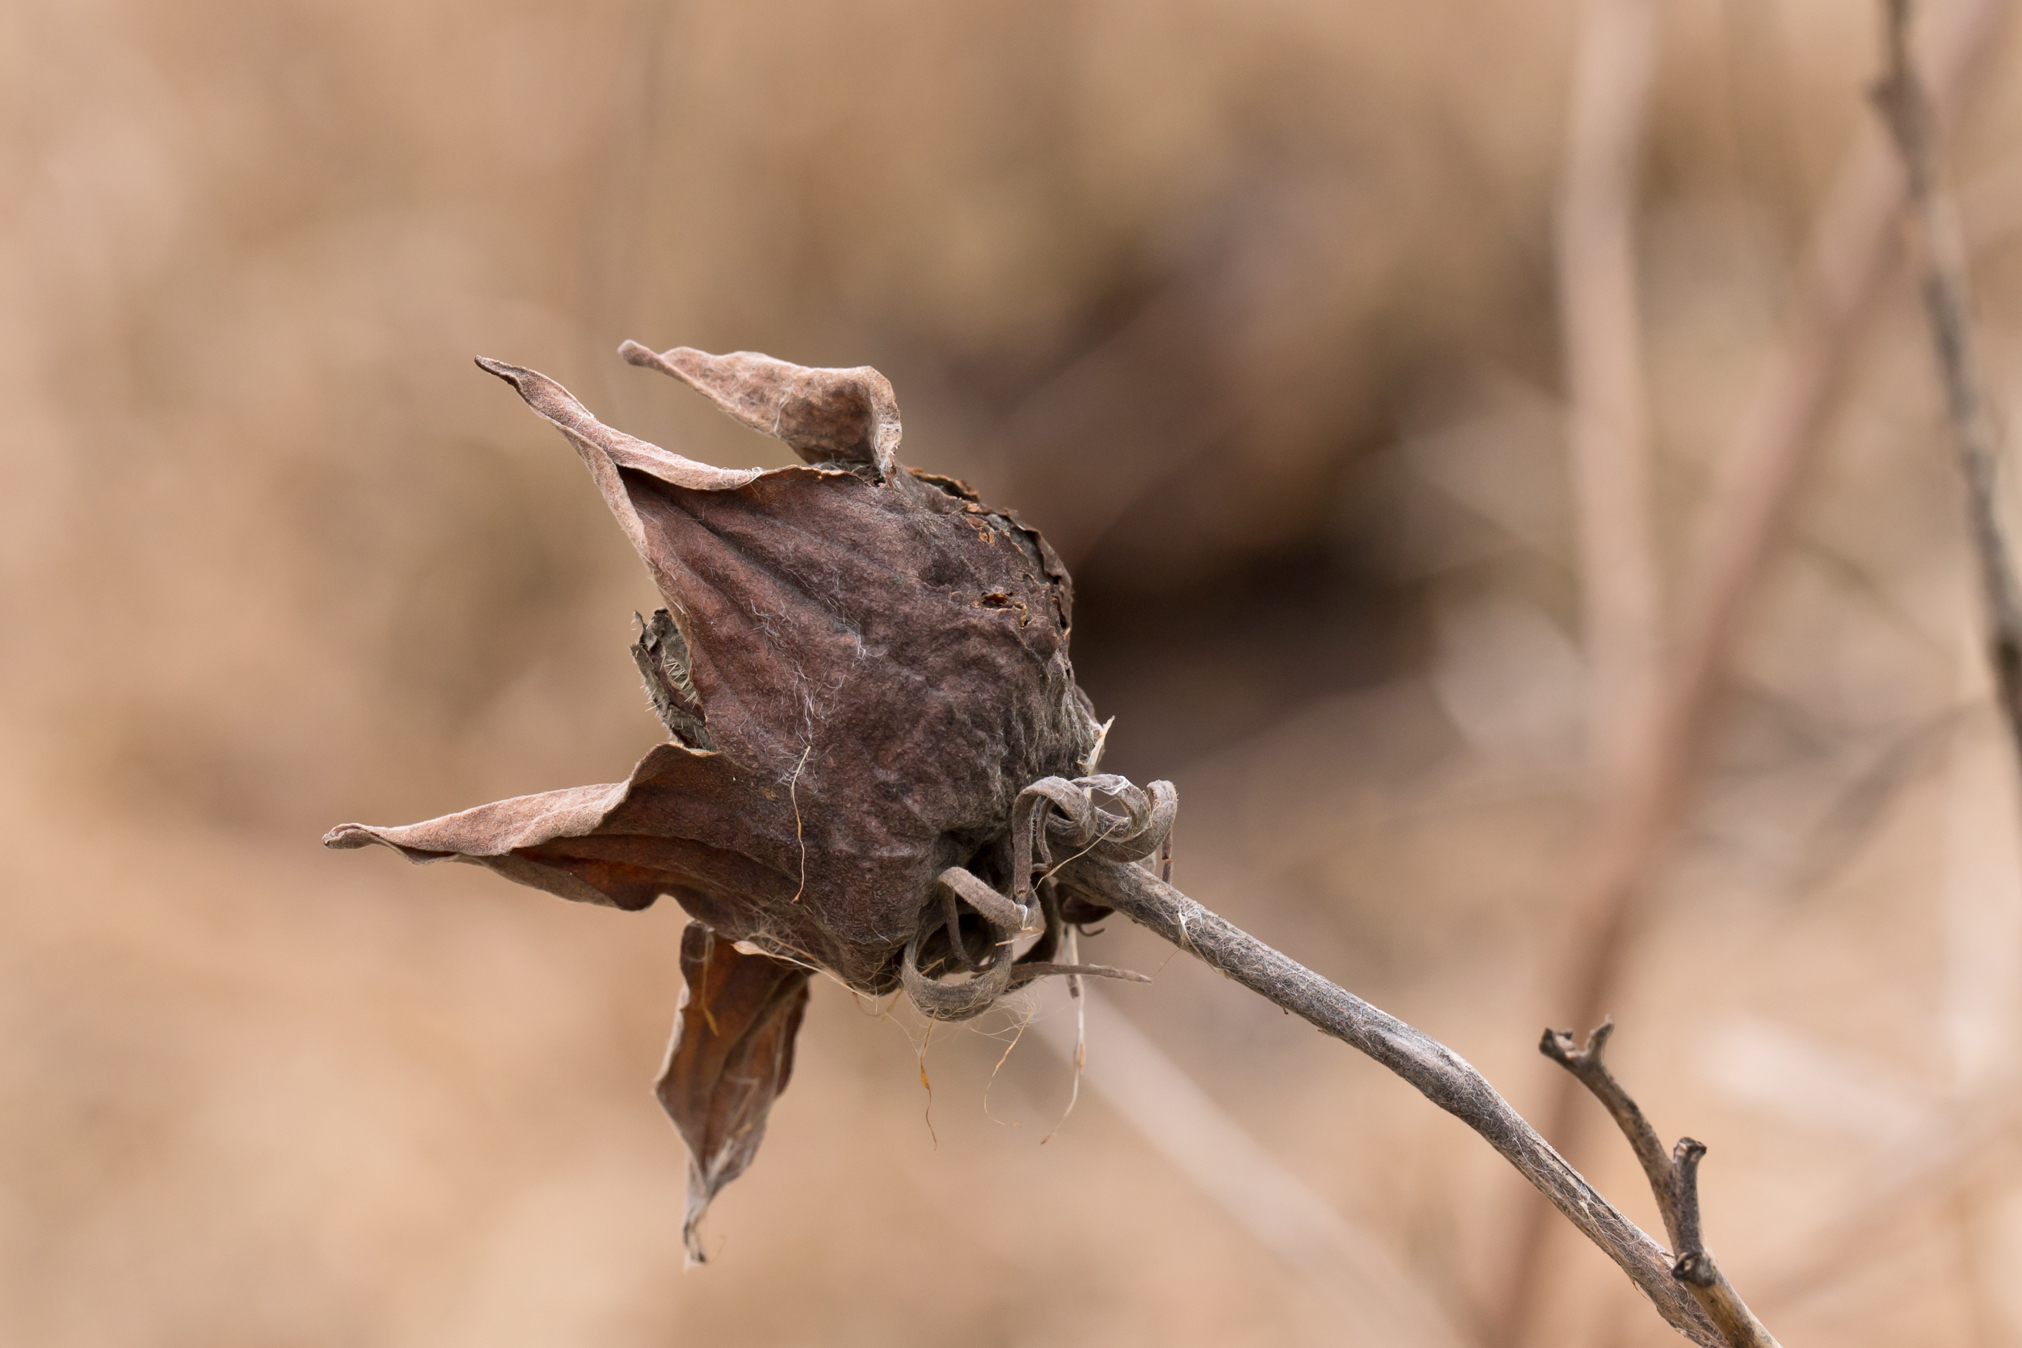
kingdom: Plantae
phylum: Tracheophyta
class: Magnoliopsida
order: Malvales
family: Malvaceae
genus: Hibiscus
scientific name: Hibiscus moscheutos
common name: Common rose-mallow
